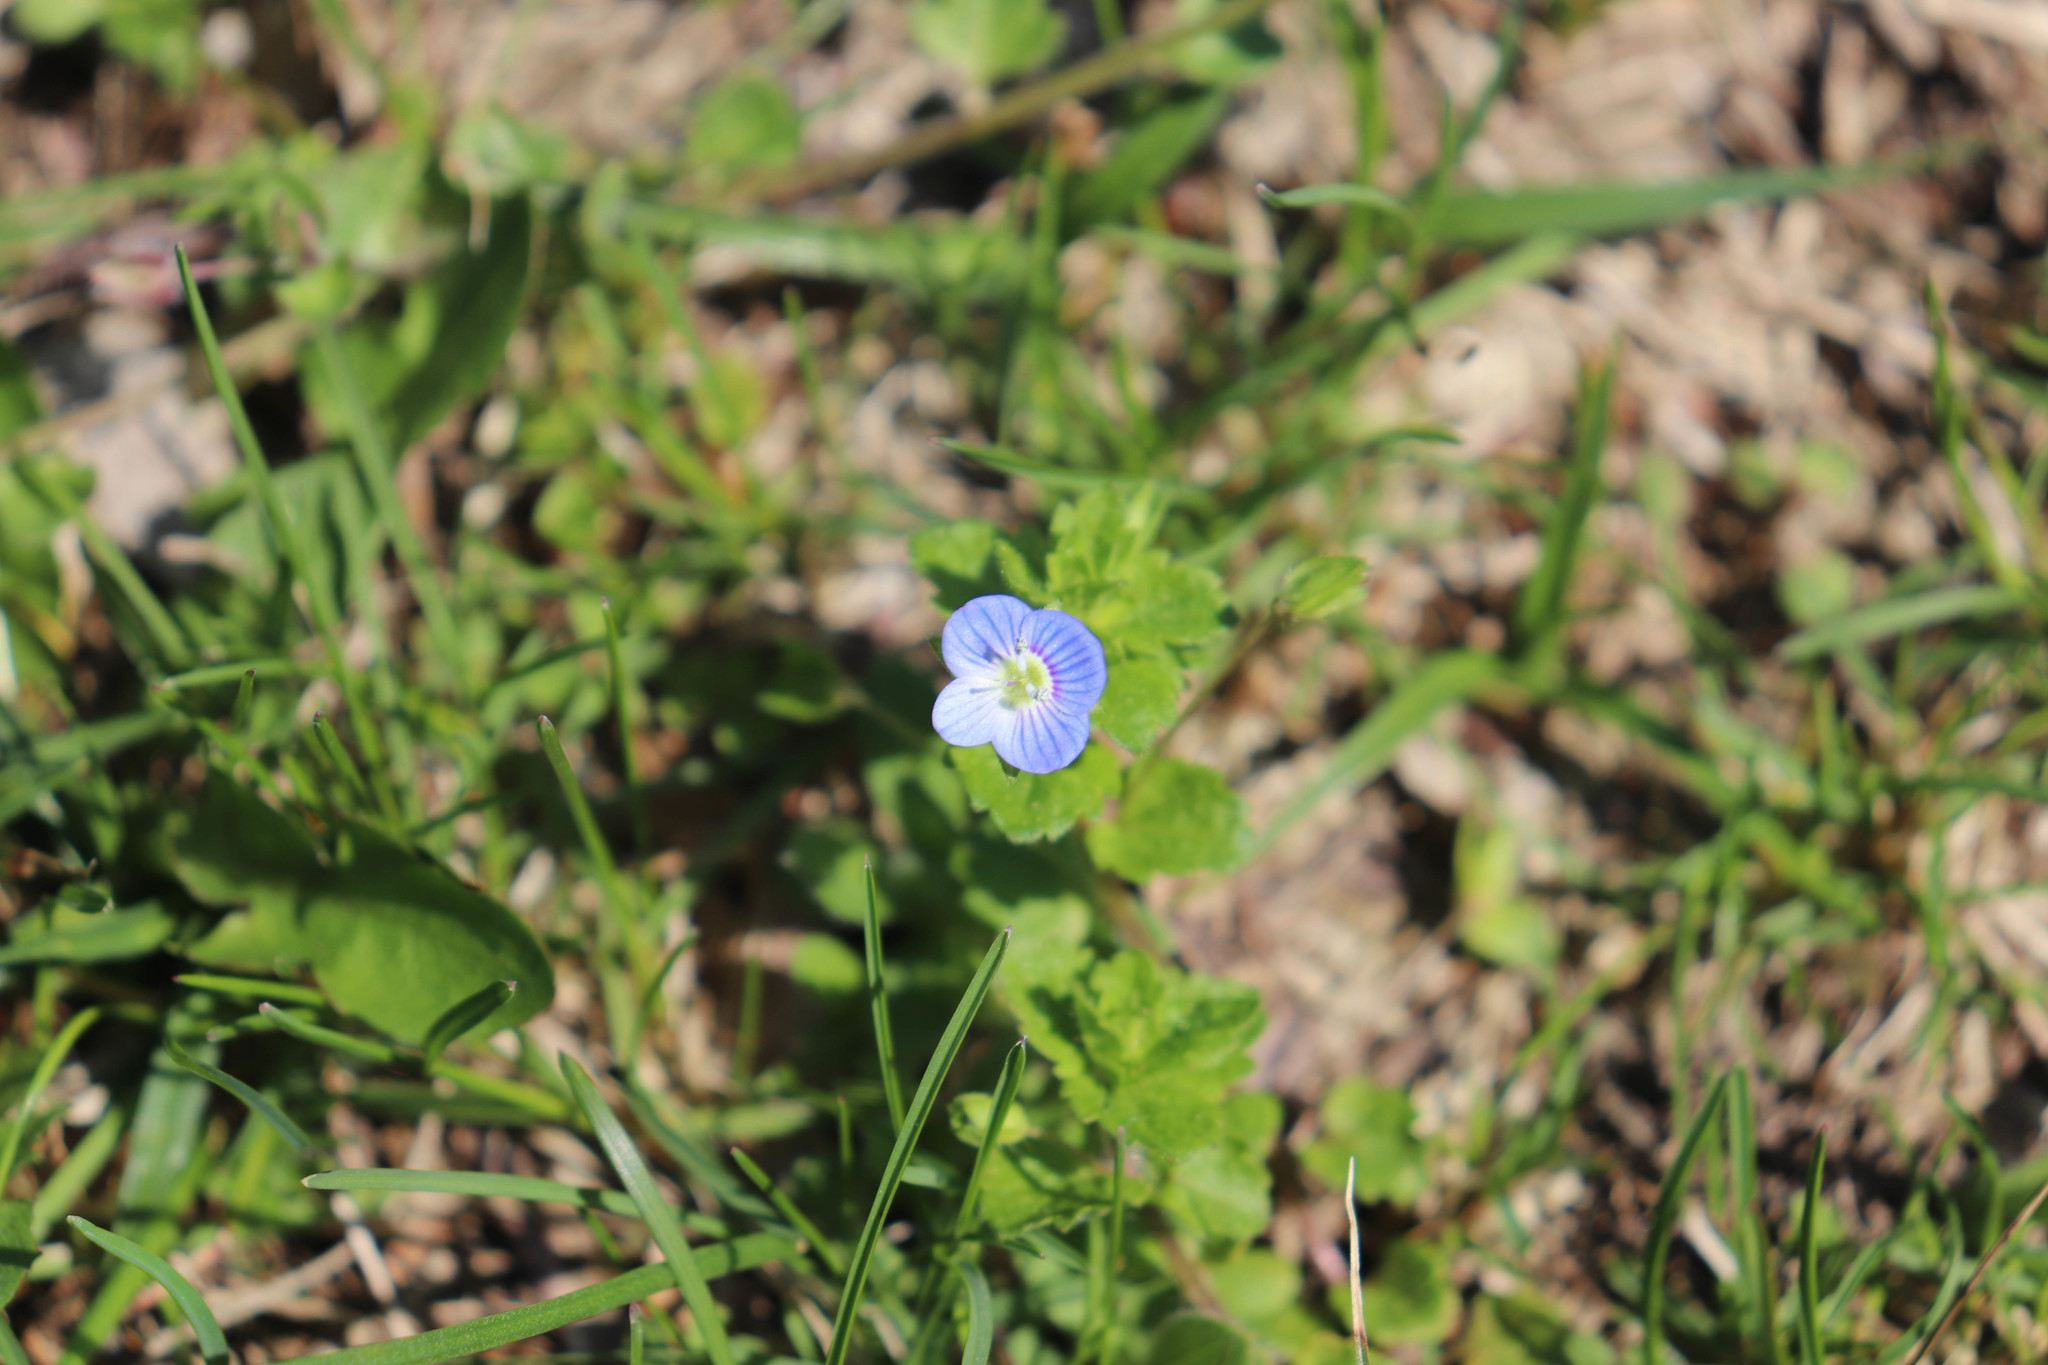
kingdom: Plantae
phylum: Tracheophyta
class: Magnoliopsida
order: Lamiales
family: Plantaginaceae
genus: Veronica
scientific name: Veronica persica
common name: Common field-speedwell
